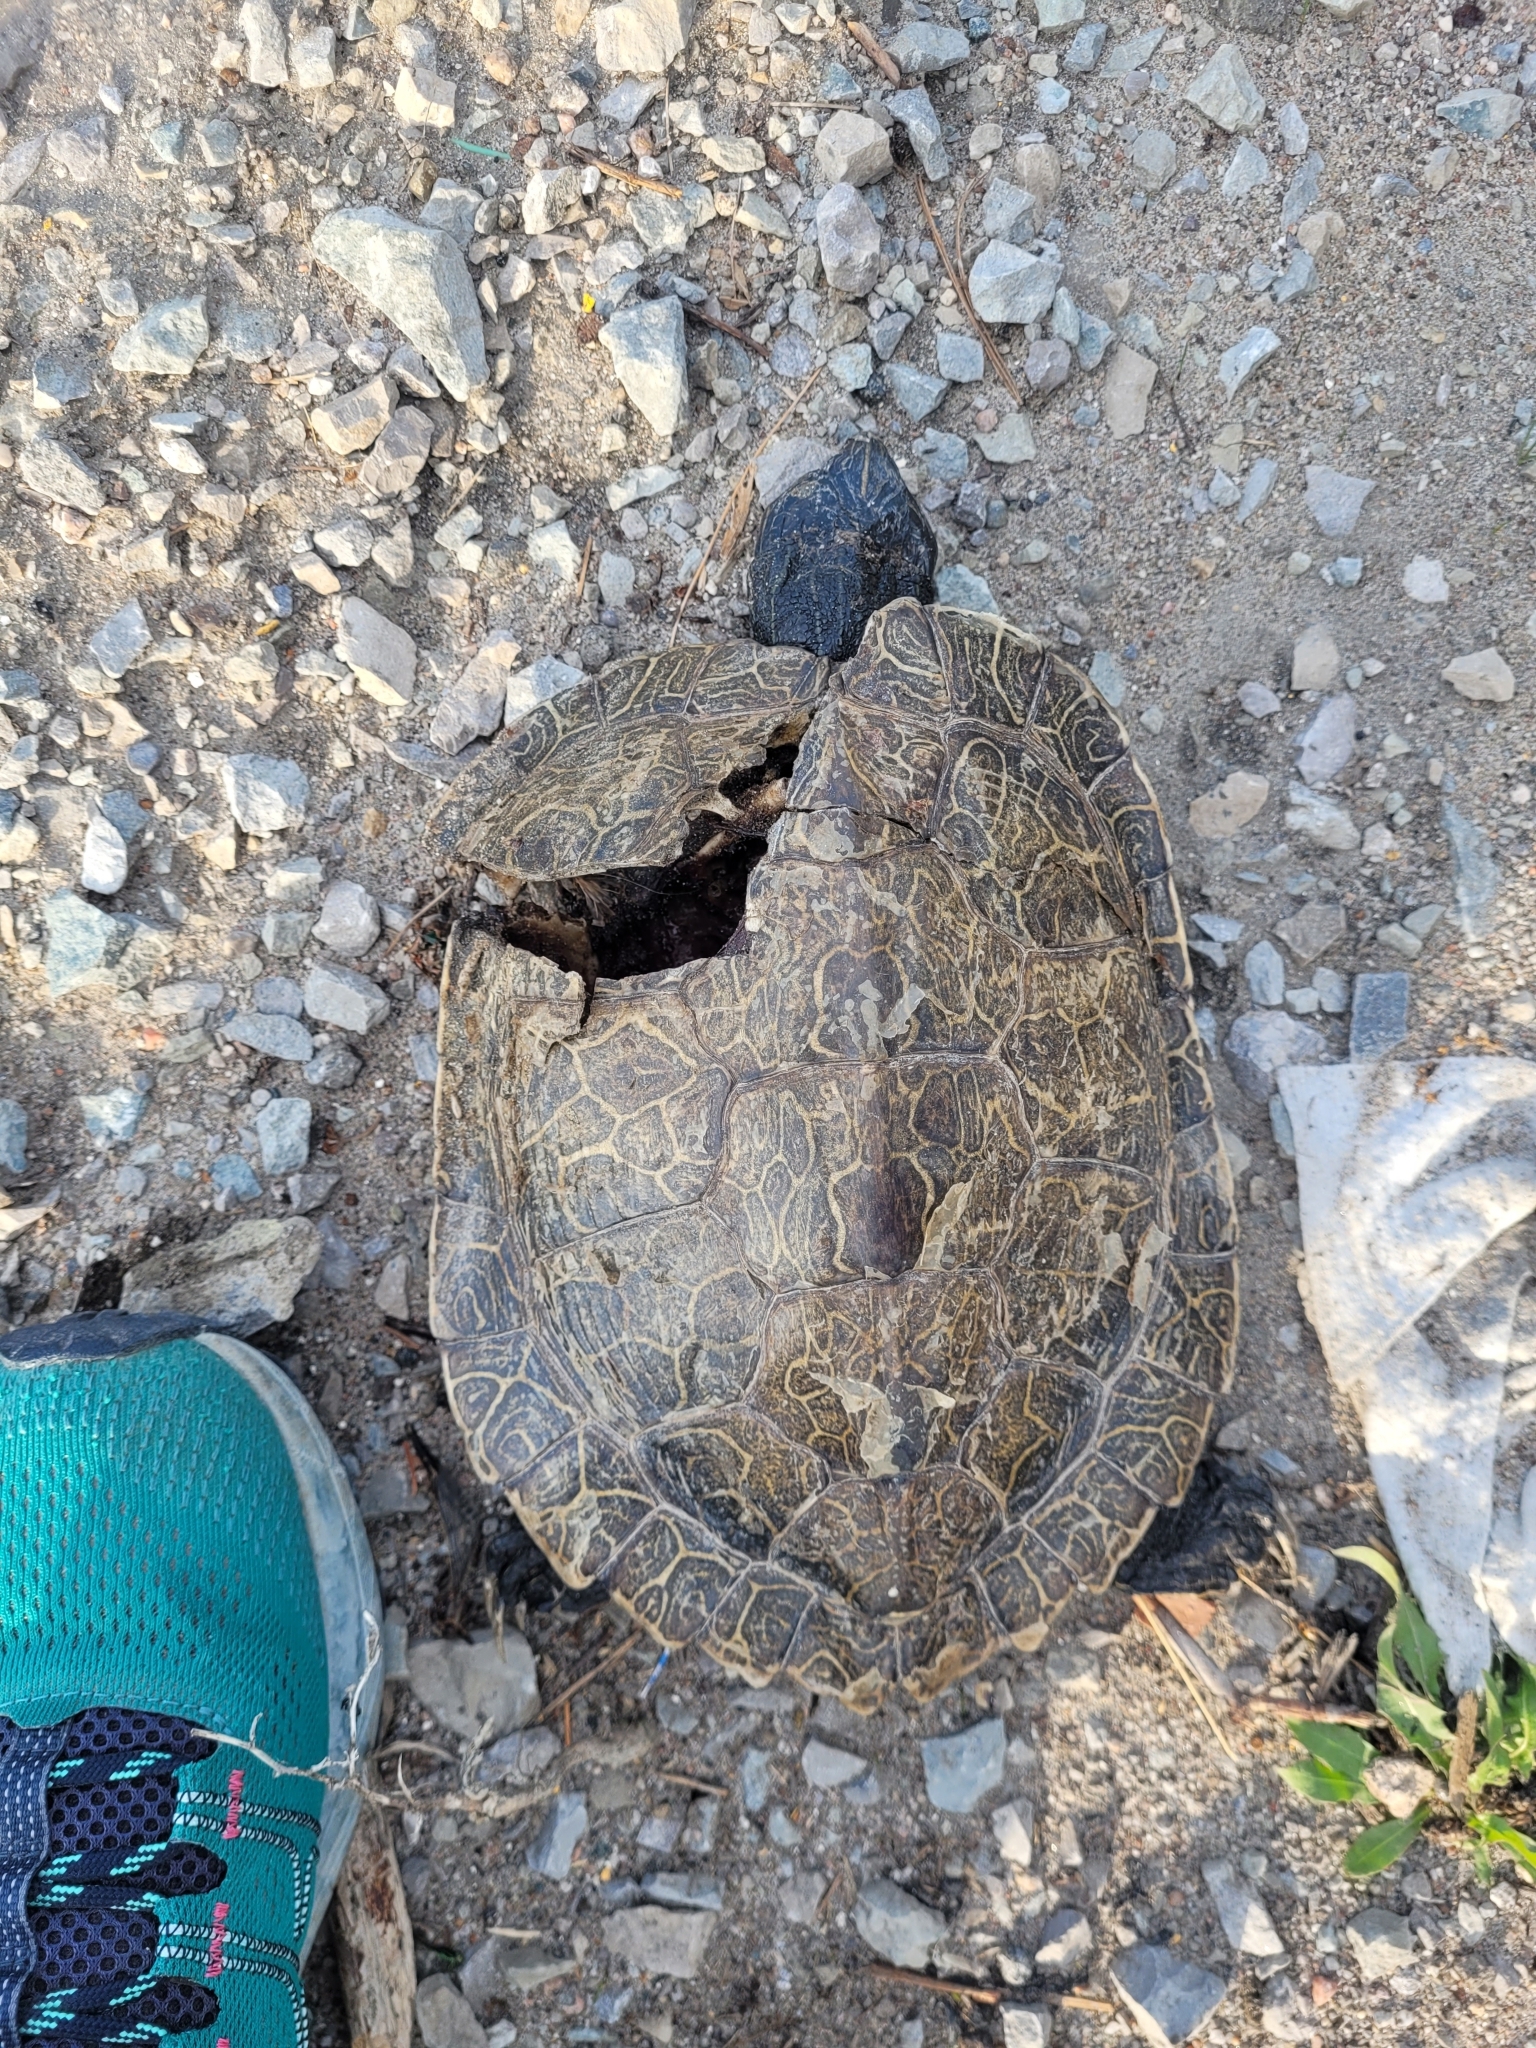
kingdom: Animalia
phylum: Chordata
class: Testudines
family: Emydidae
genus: Graptemys
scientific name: Graptemys geographica
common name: Common map turtle
